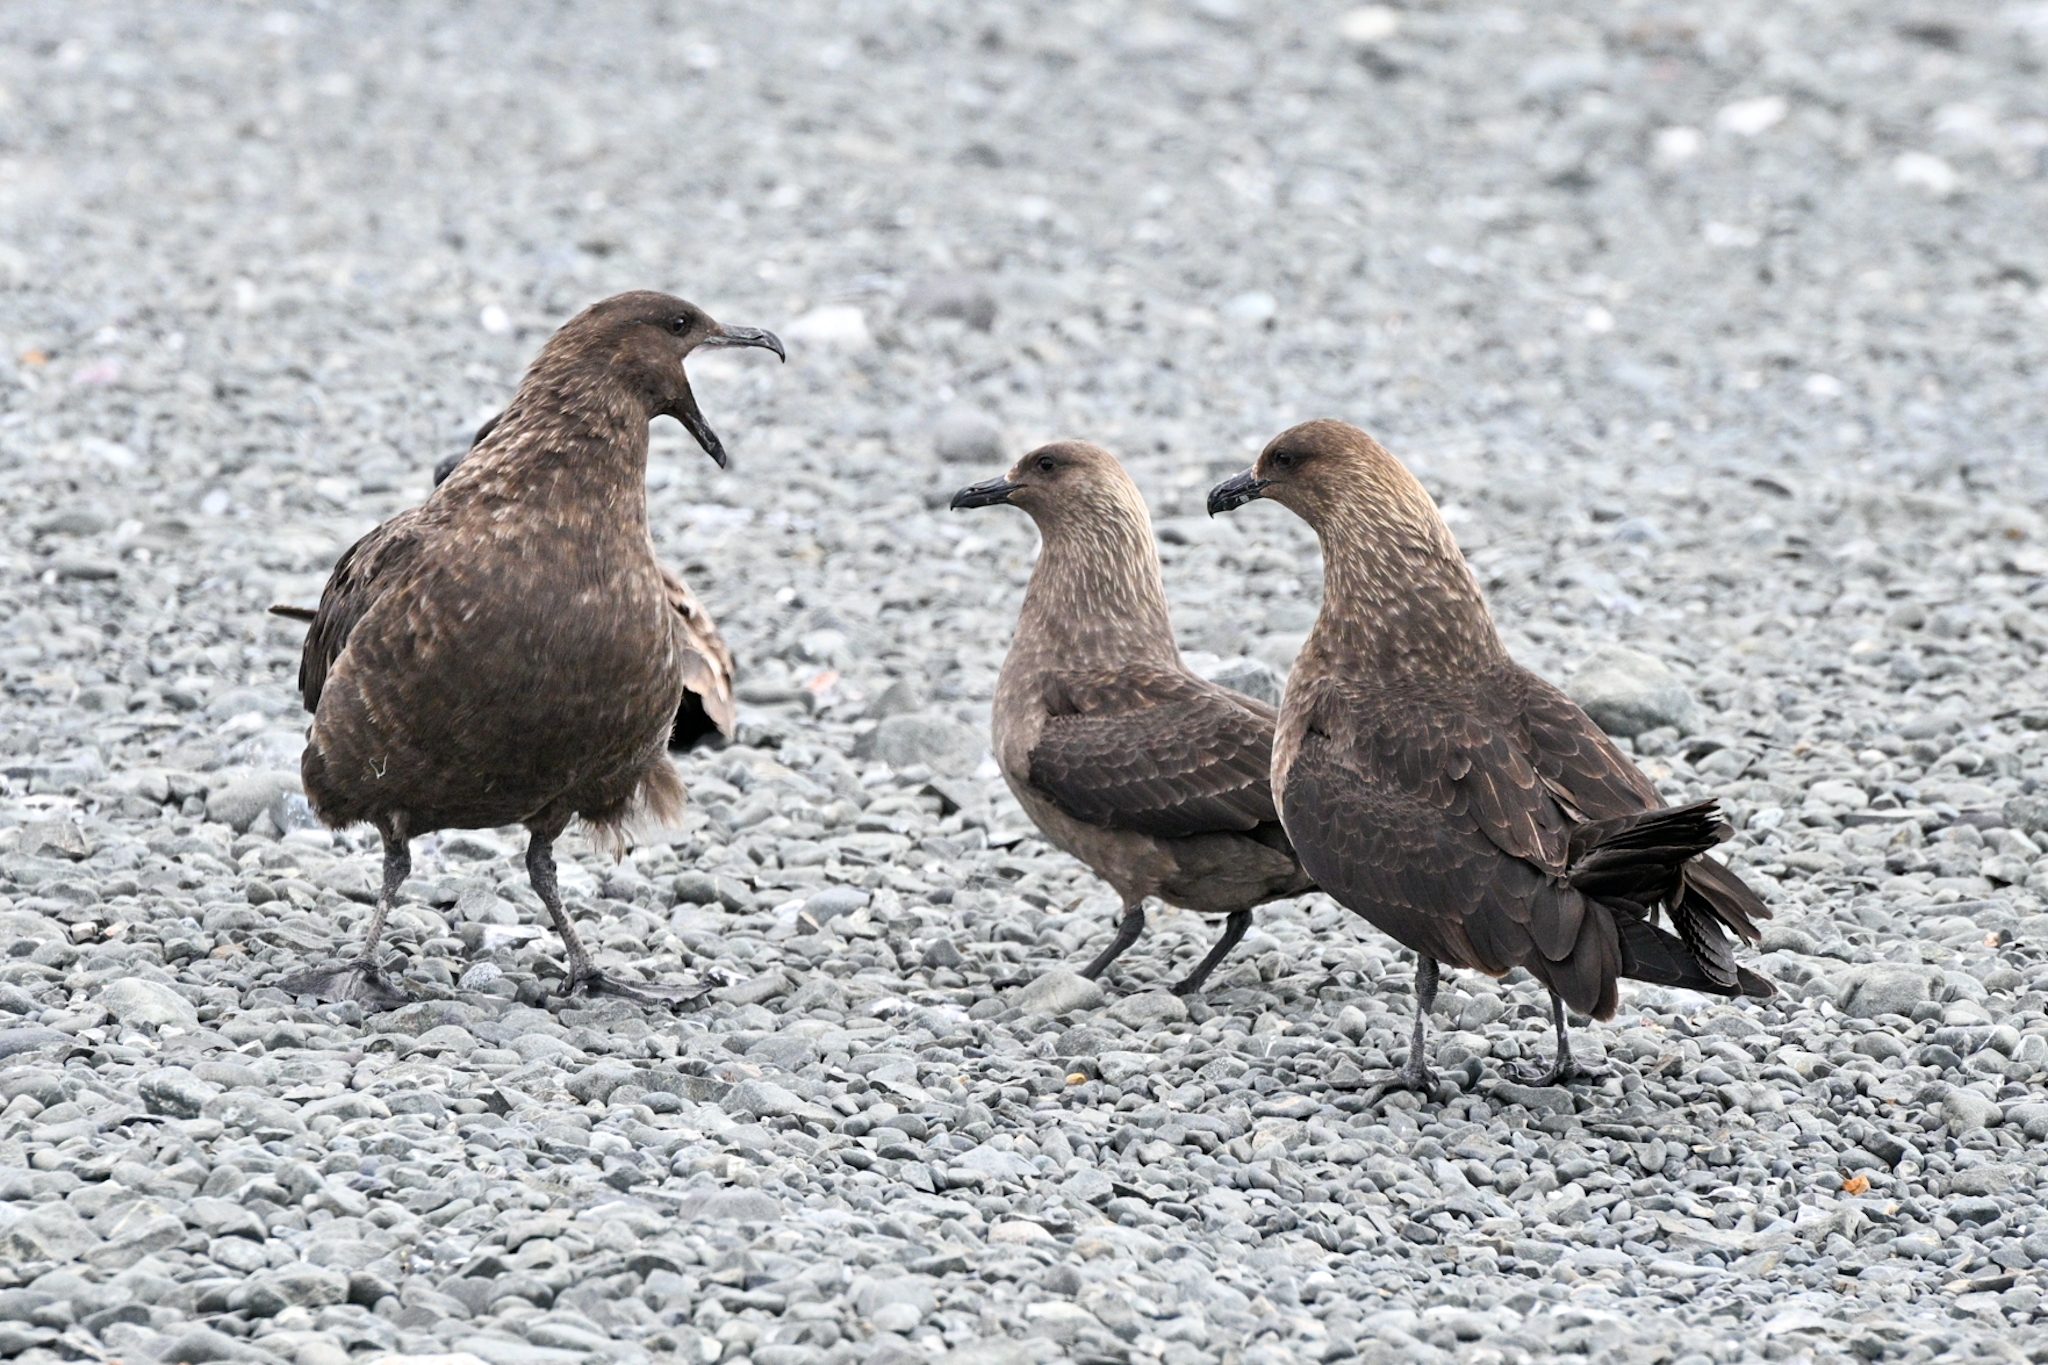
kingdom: Animalia
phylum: Chordata
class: Aves
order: Charadriiformes
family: Stercorariidae
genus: Stercorarius
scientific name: Stercorarius antarcticus
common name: Brown skua
